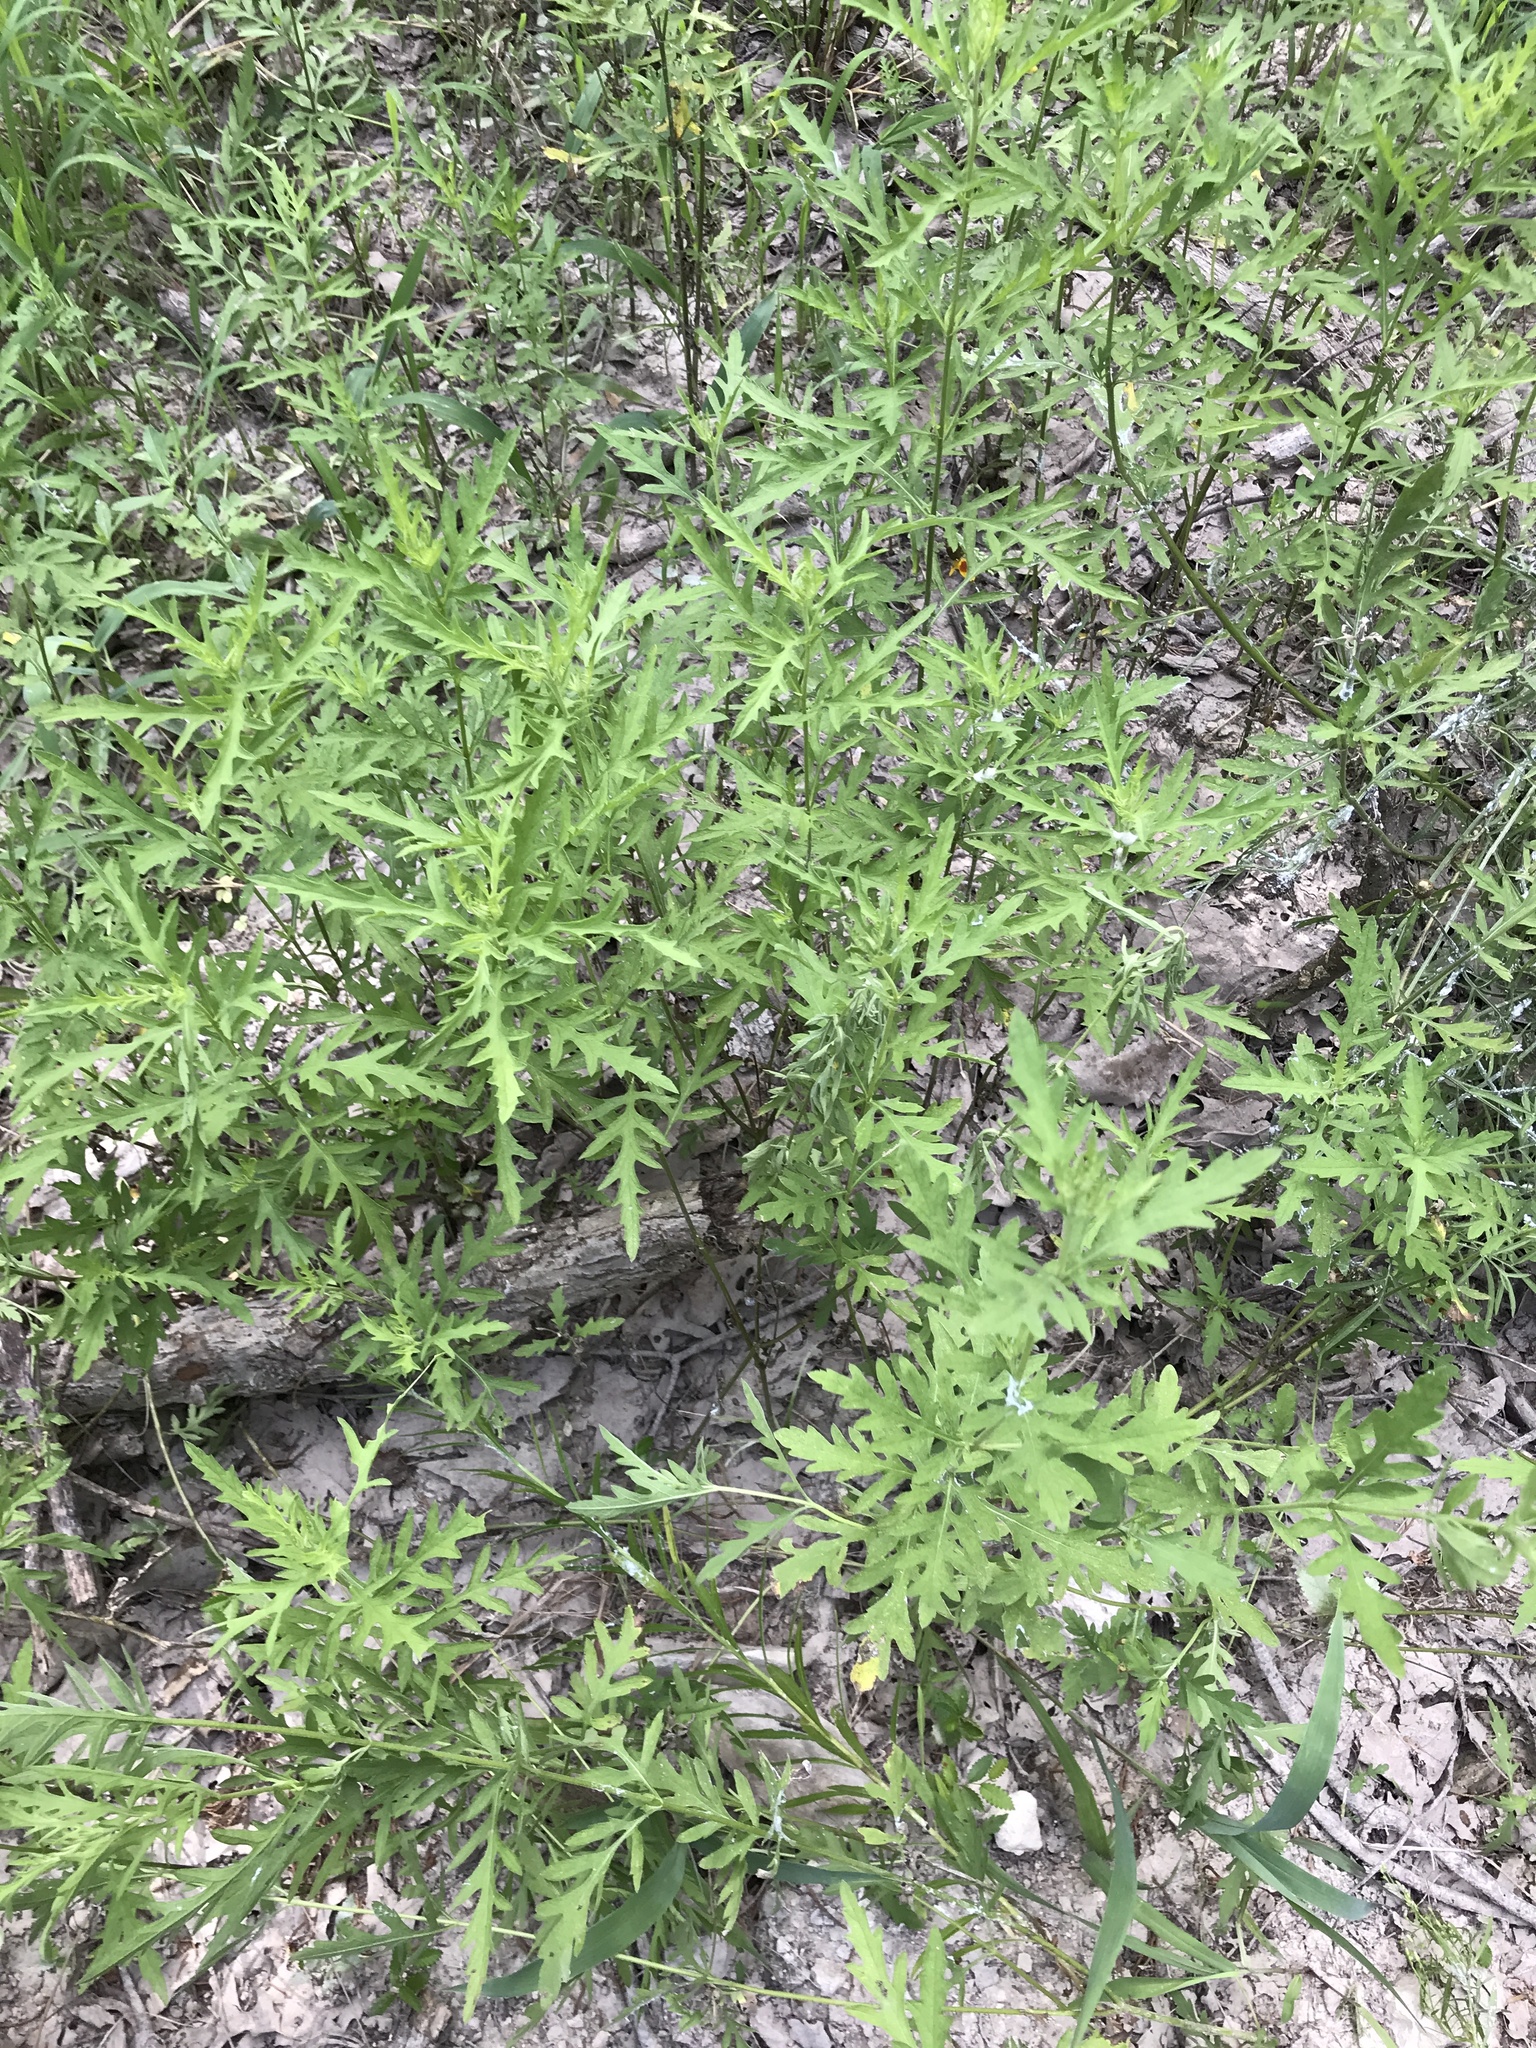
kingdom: Plantae
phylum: Tracheophyta
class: Magnoliopsida
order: Asterales
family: Asteraceae
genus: Ambrosia
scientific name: Ambrosia psilostachya
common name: Perennial ragweed
